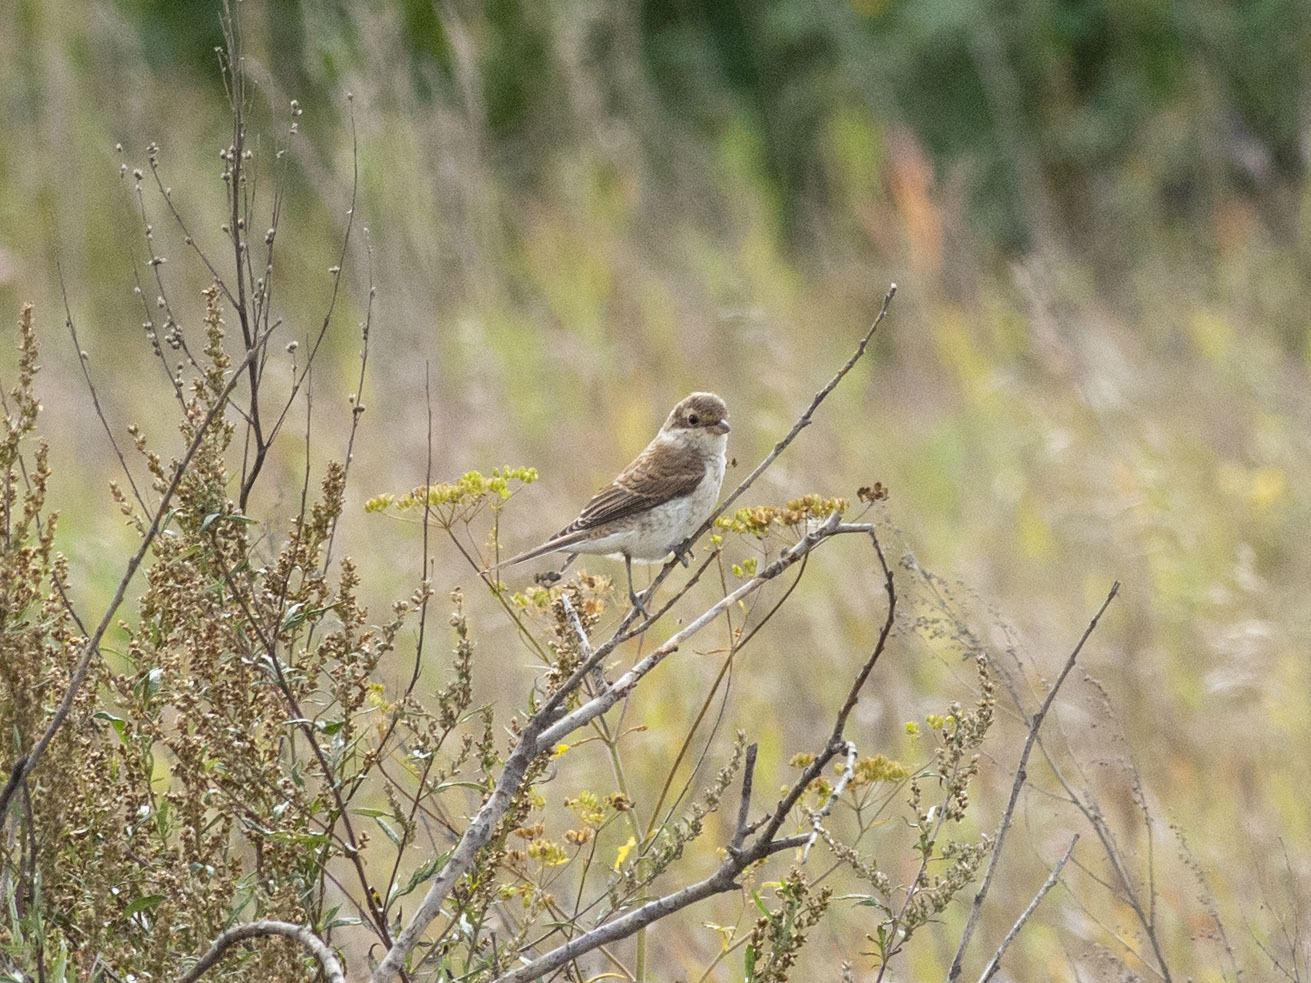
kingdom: Animalia
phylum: Chordata
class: Aves
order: Passeriformes
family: Laniidae
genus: Lanius
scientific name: Lanius collurio
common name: Red-backed shrike
